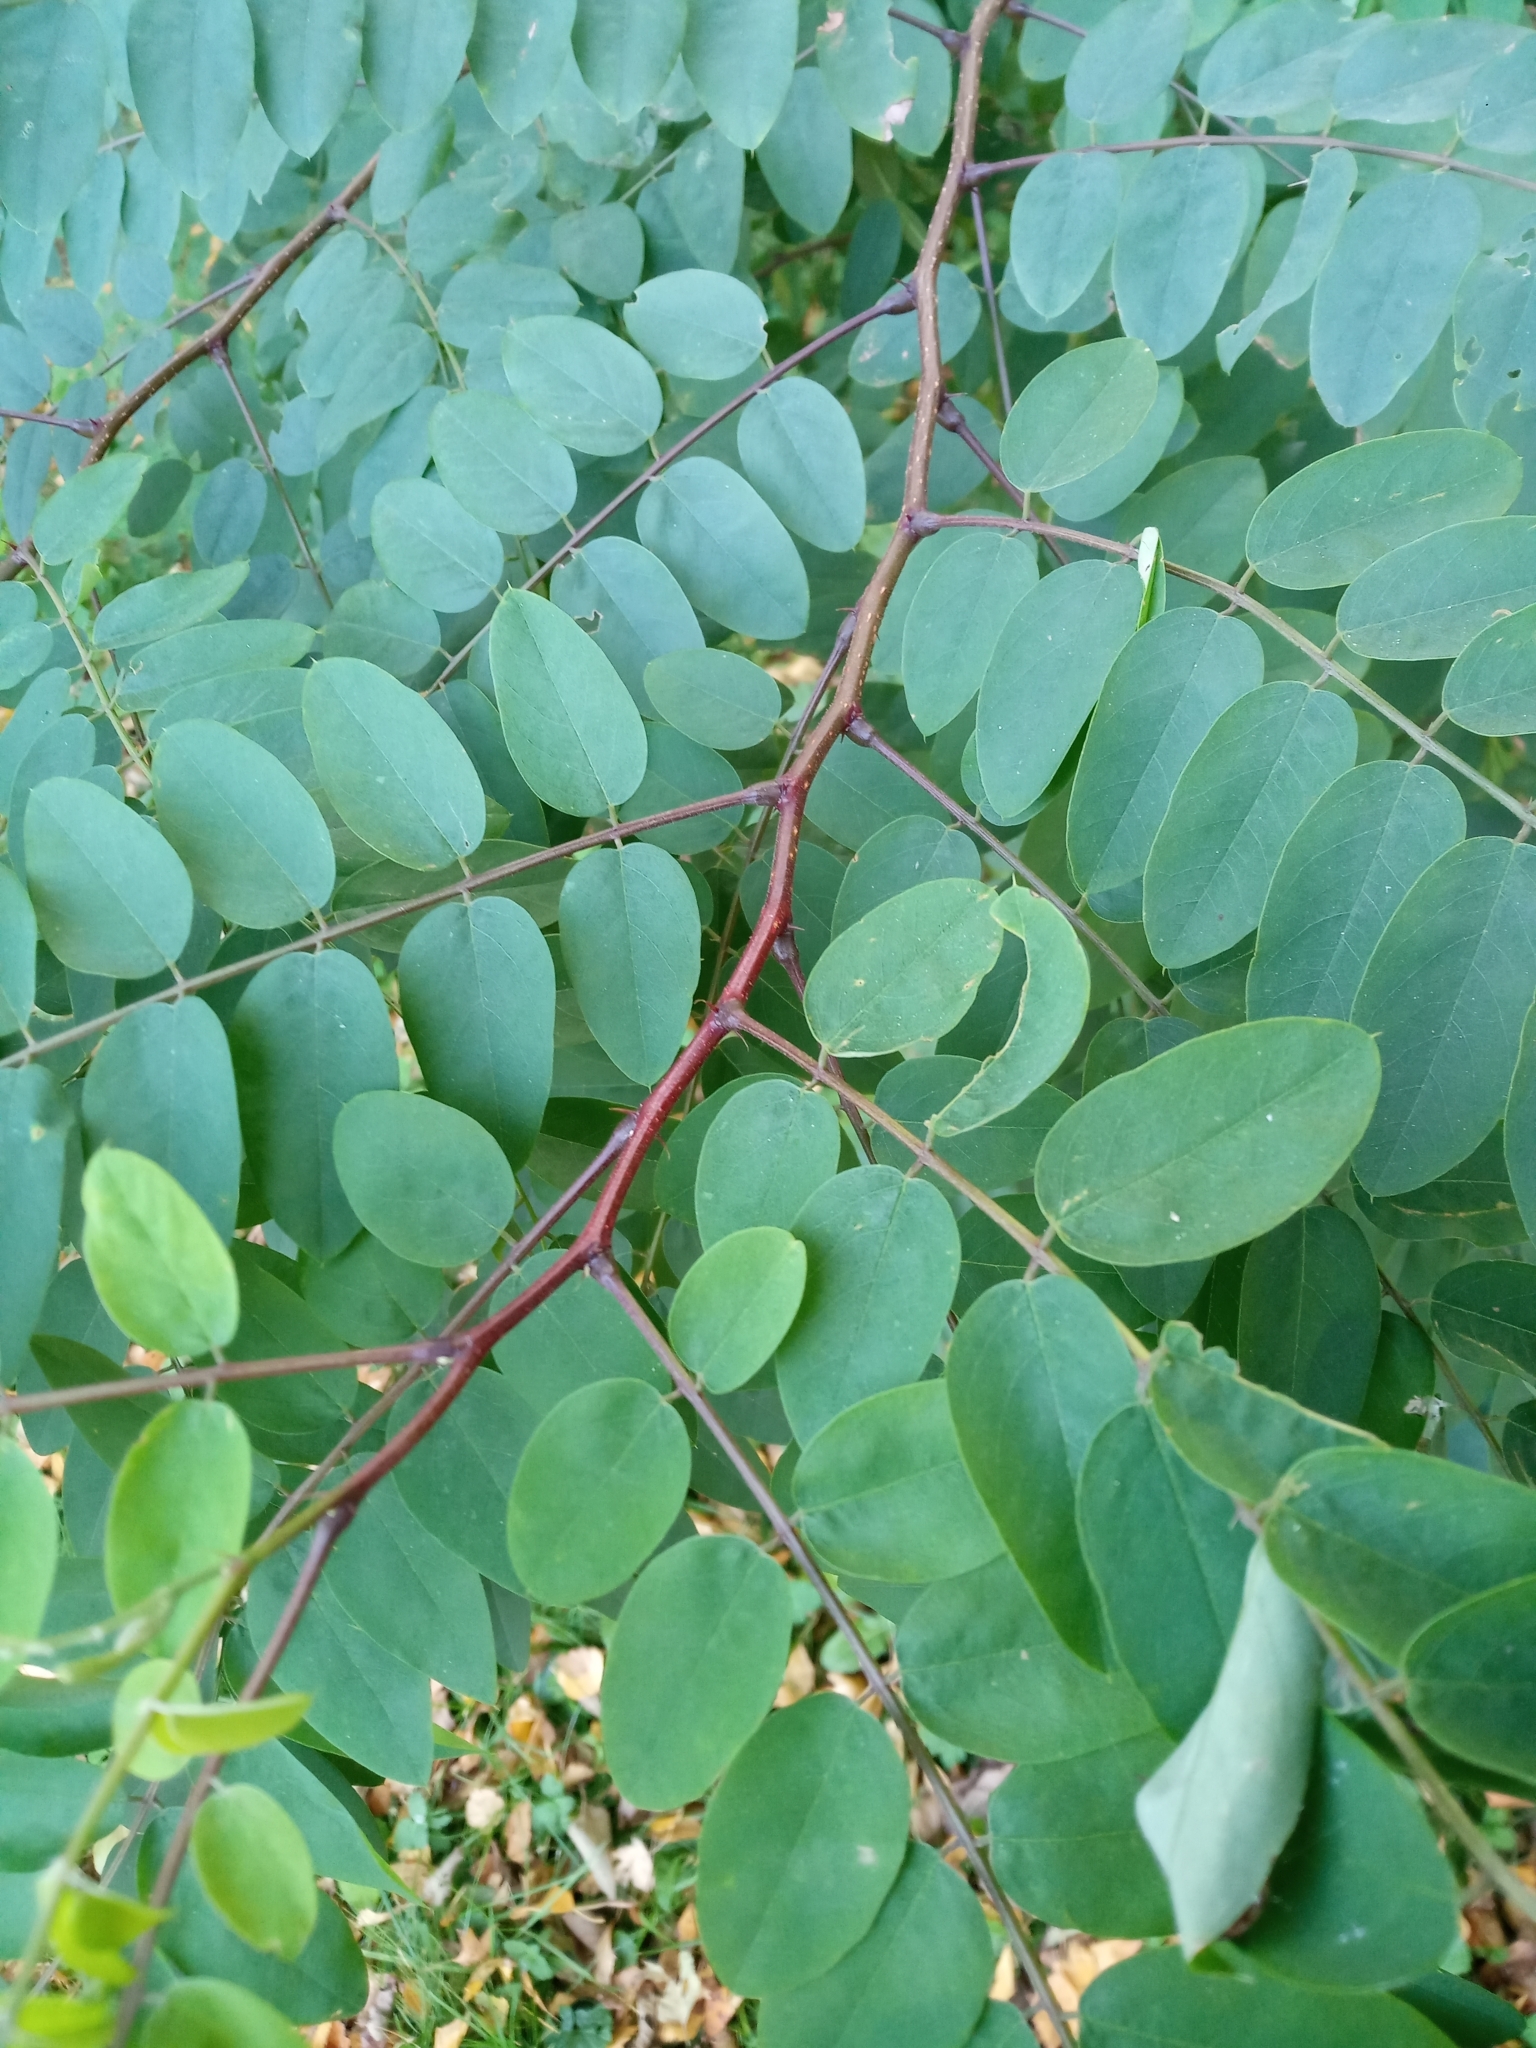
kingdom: Plantae
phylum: Tracheophyta
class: Magnoliopsida
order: Fabales
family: Fabaceae
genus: Robinia
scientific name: Robinia pseudoacacia
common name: Black locust
